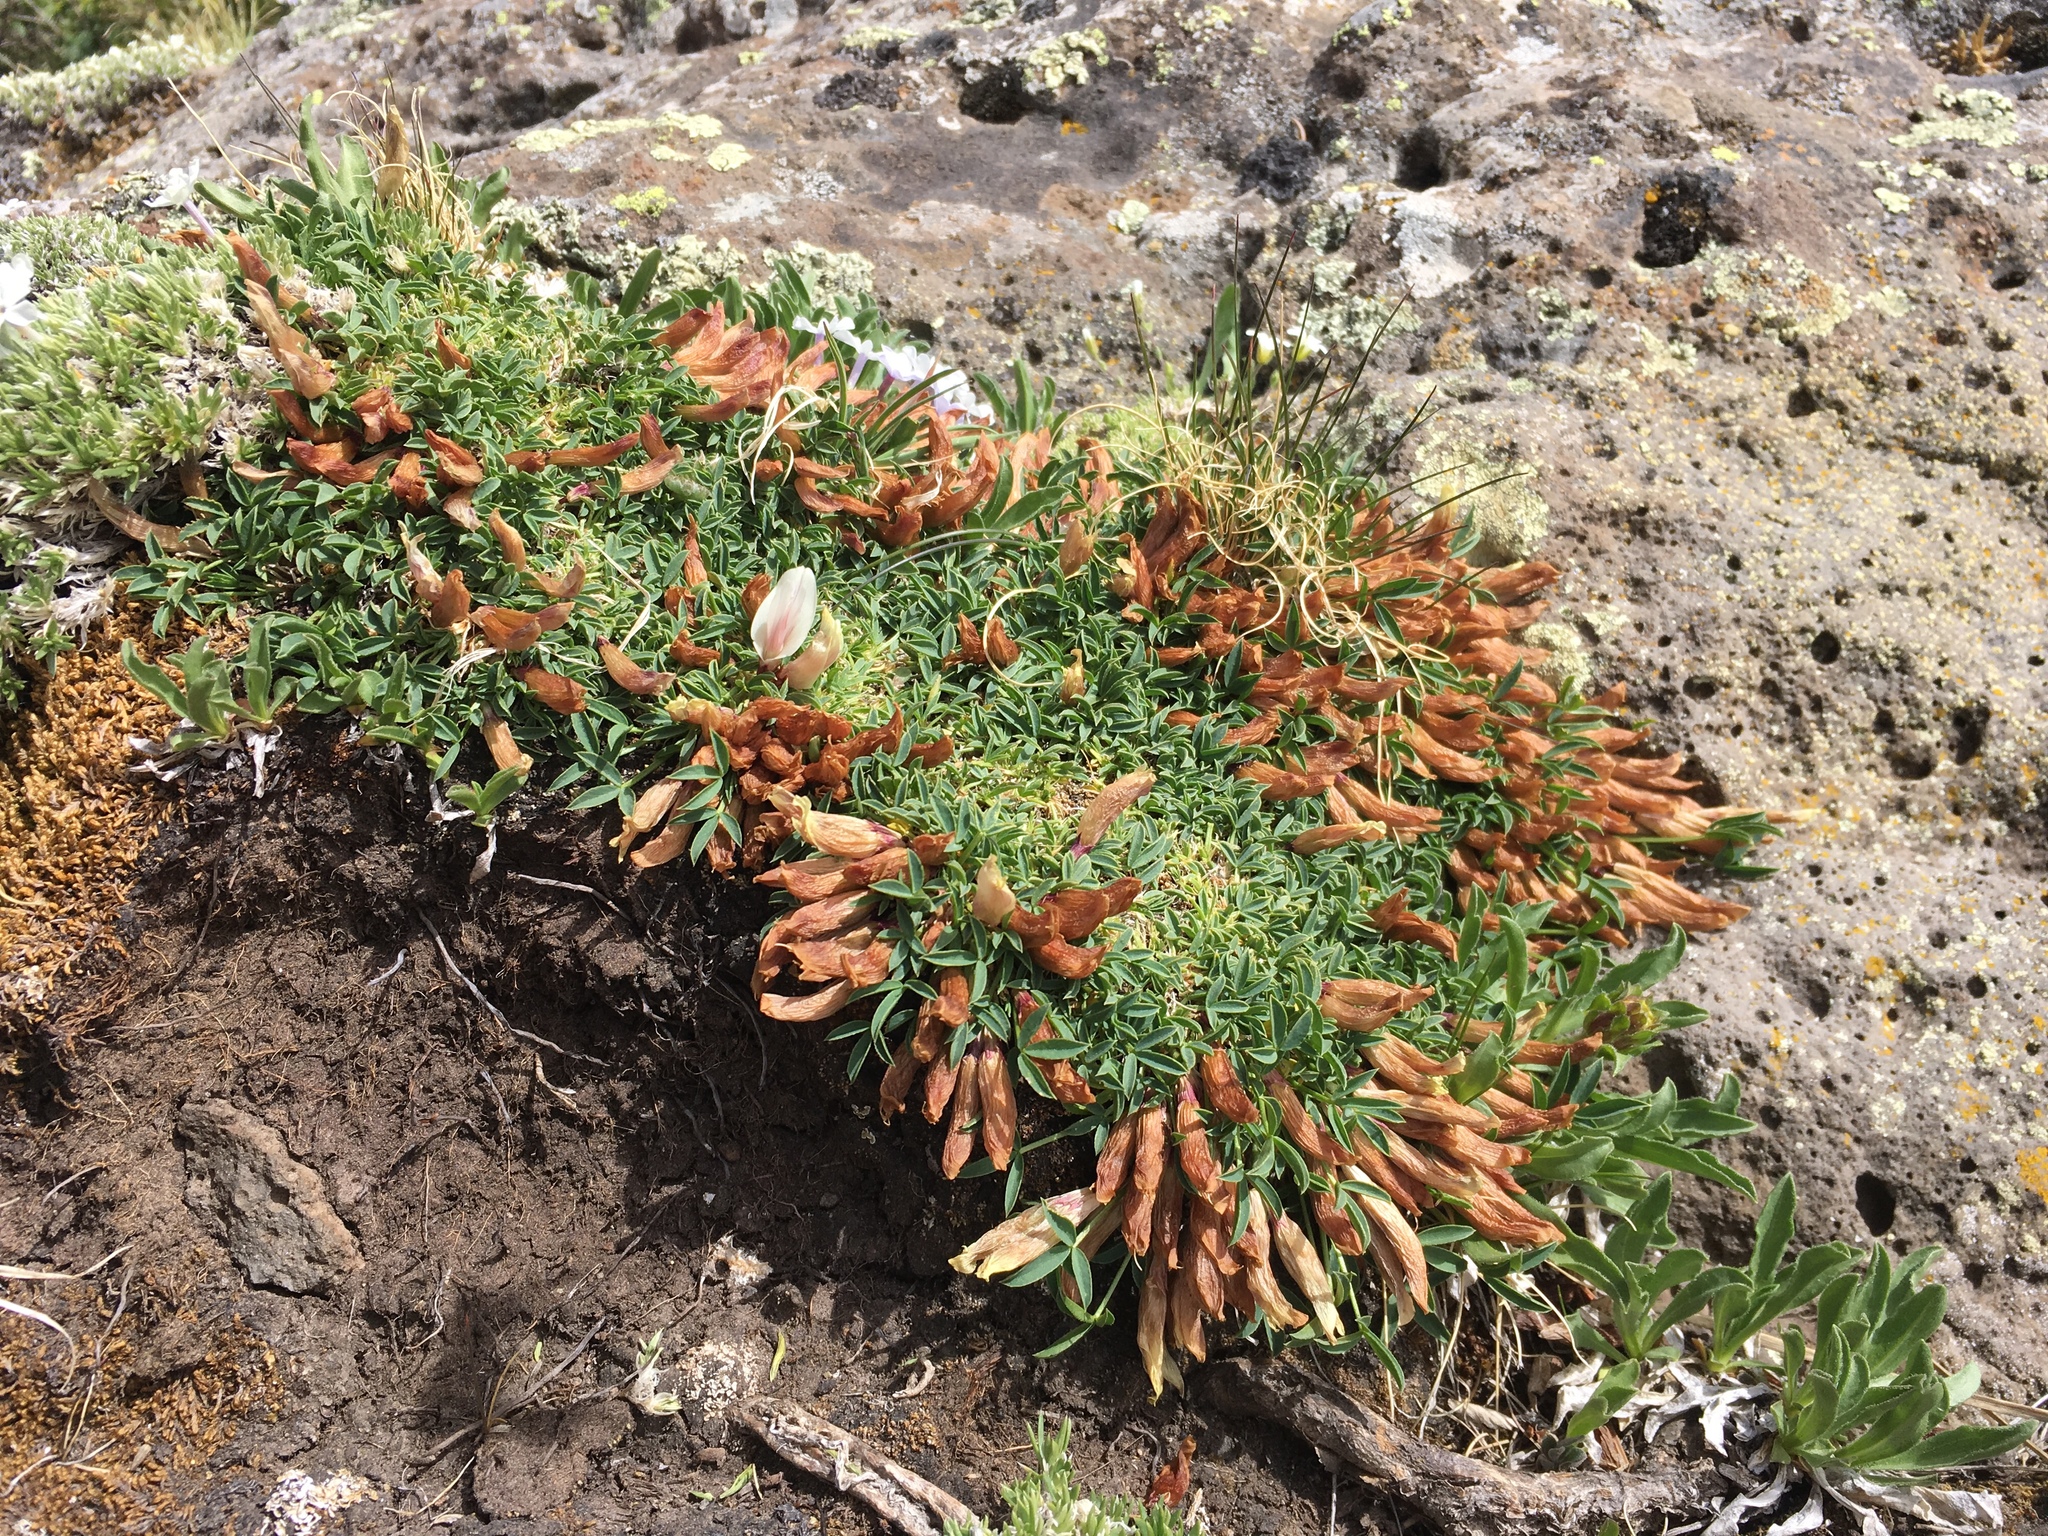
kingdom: Plantae
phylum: Tracheophyta
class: Magnoliopsida
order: Fabales
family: Fabaceae
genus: Trifolium
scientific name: Trifolium nanum
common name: Tundra clover
